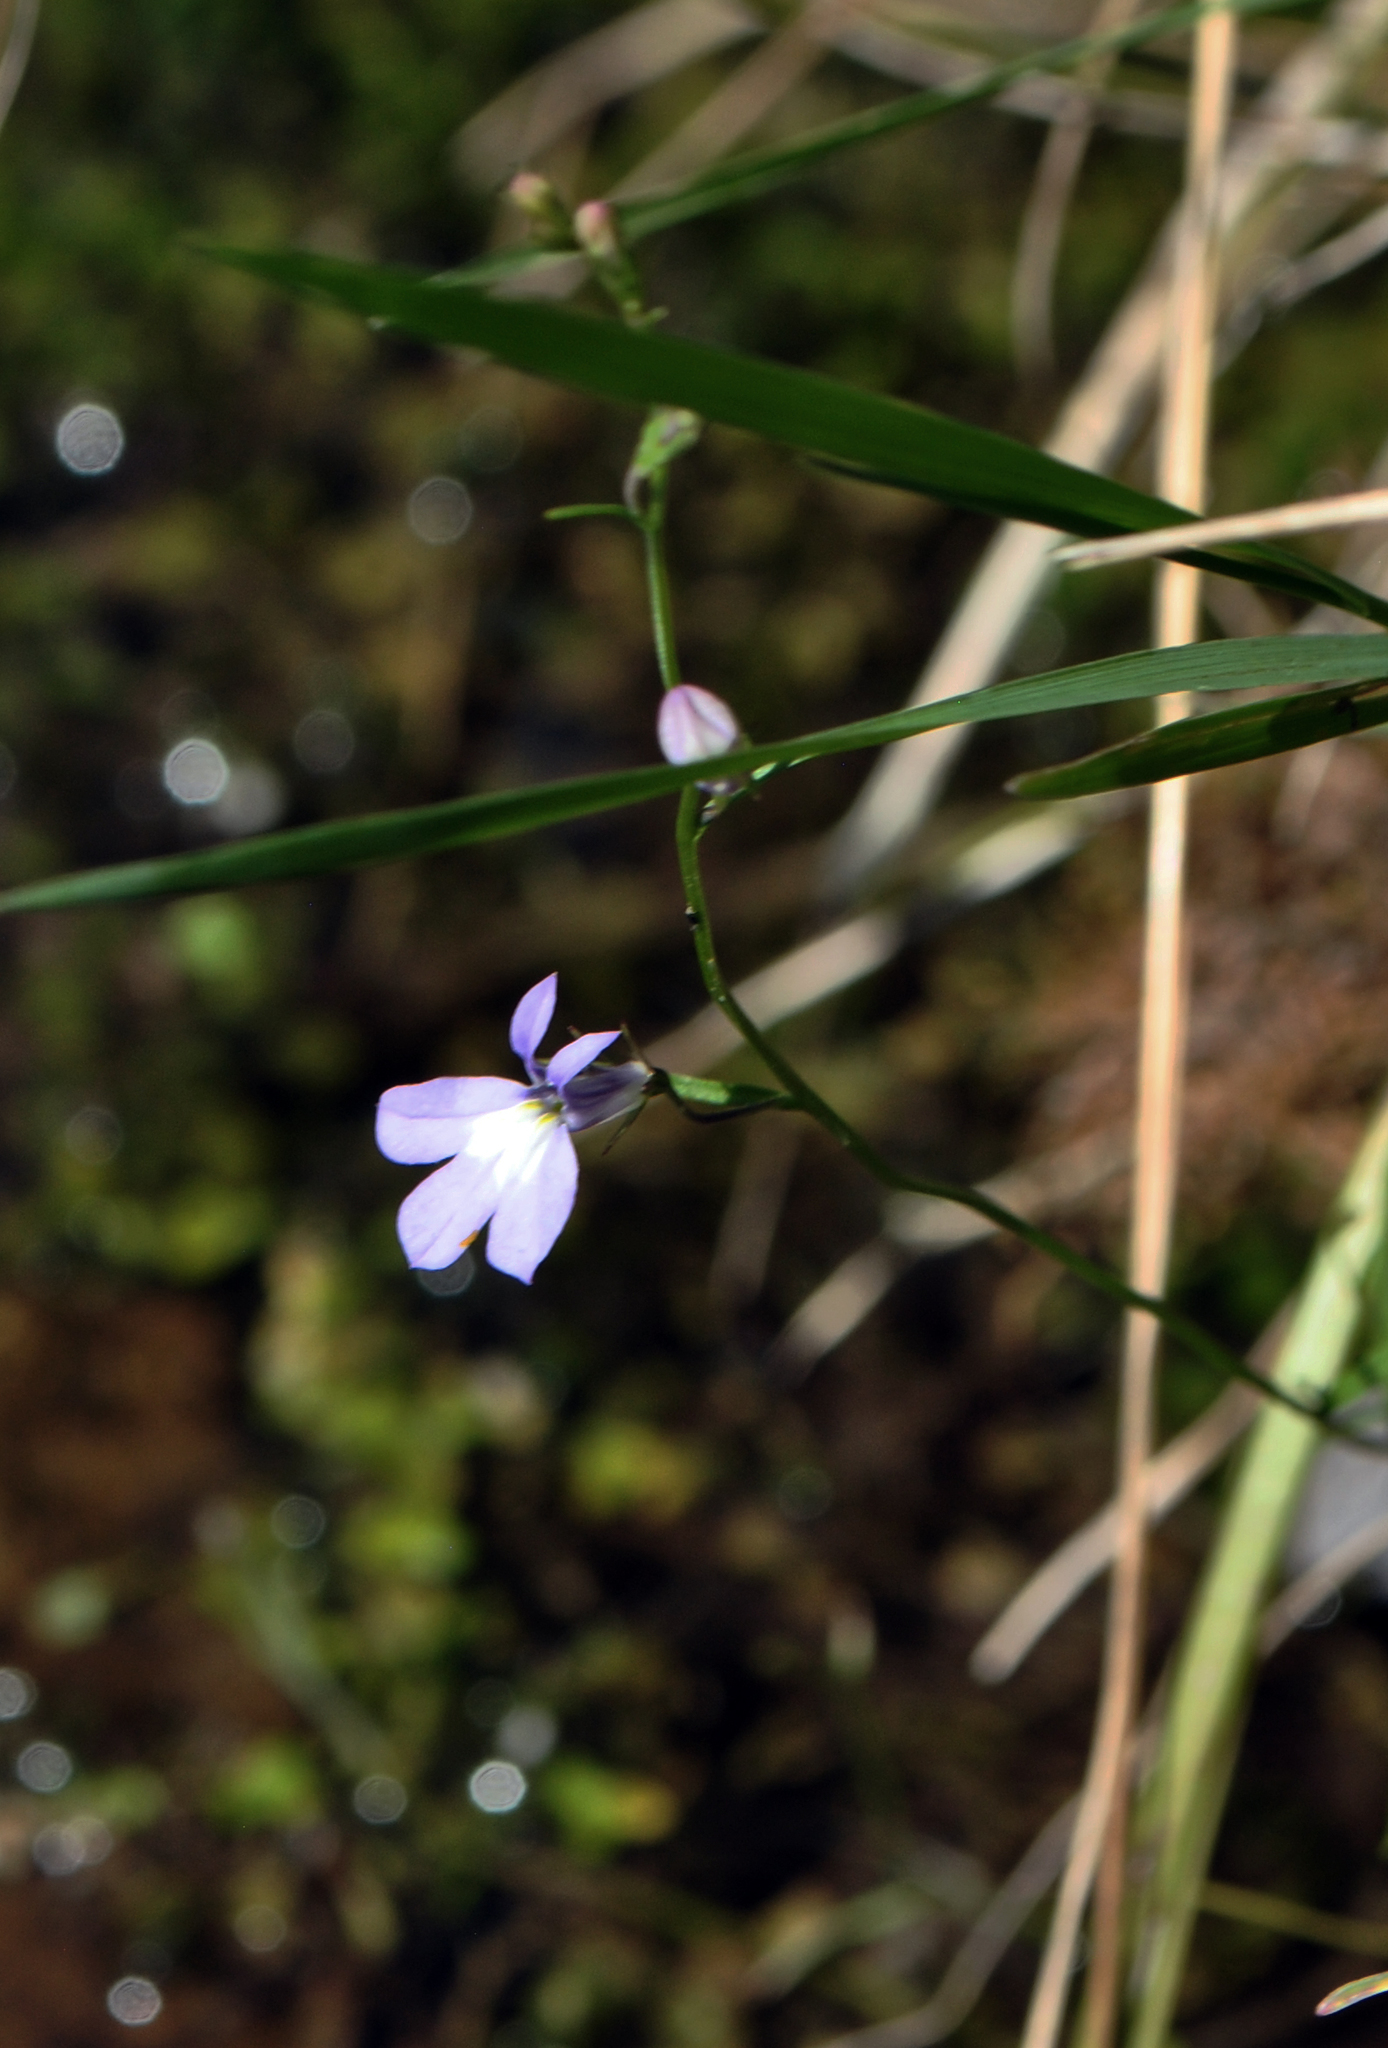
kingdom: Plantae
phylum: Tracheophyta
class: Magnoliopsida
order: Asterales
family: Campanulaceae
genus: Lobelia
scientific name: Lobelia kalmii
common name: Kalm's lobelia
